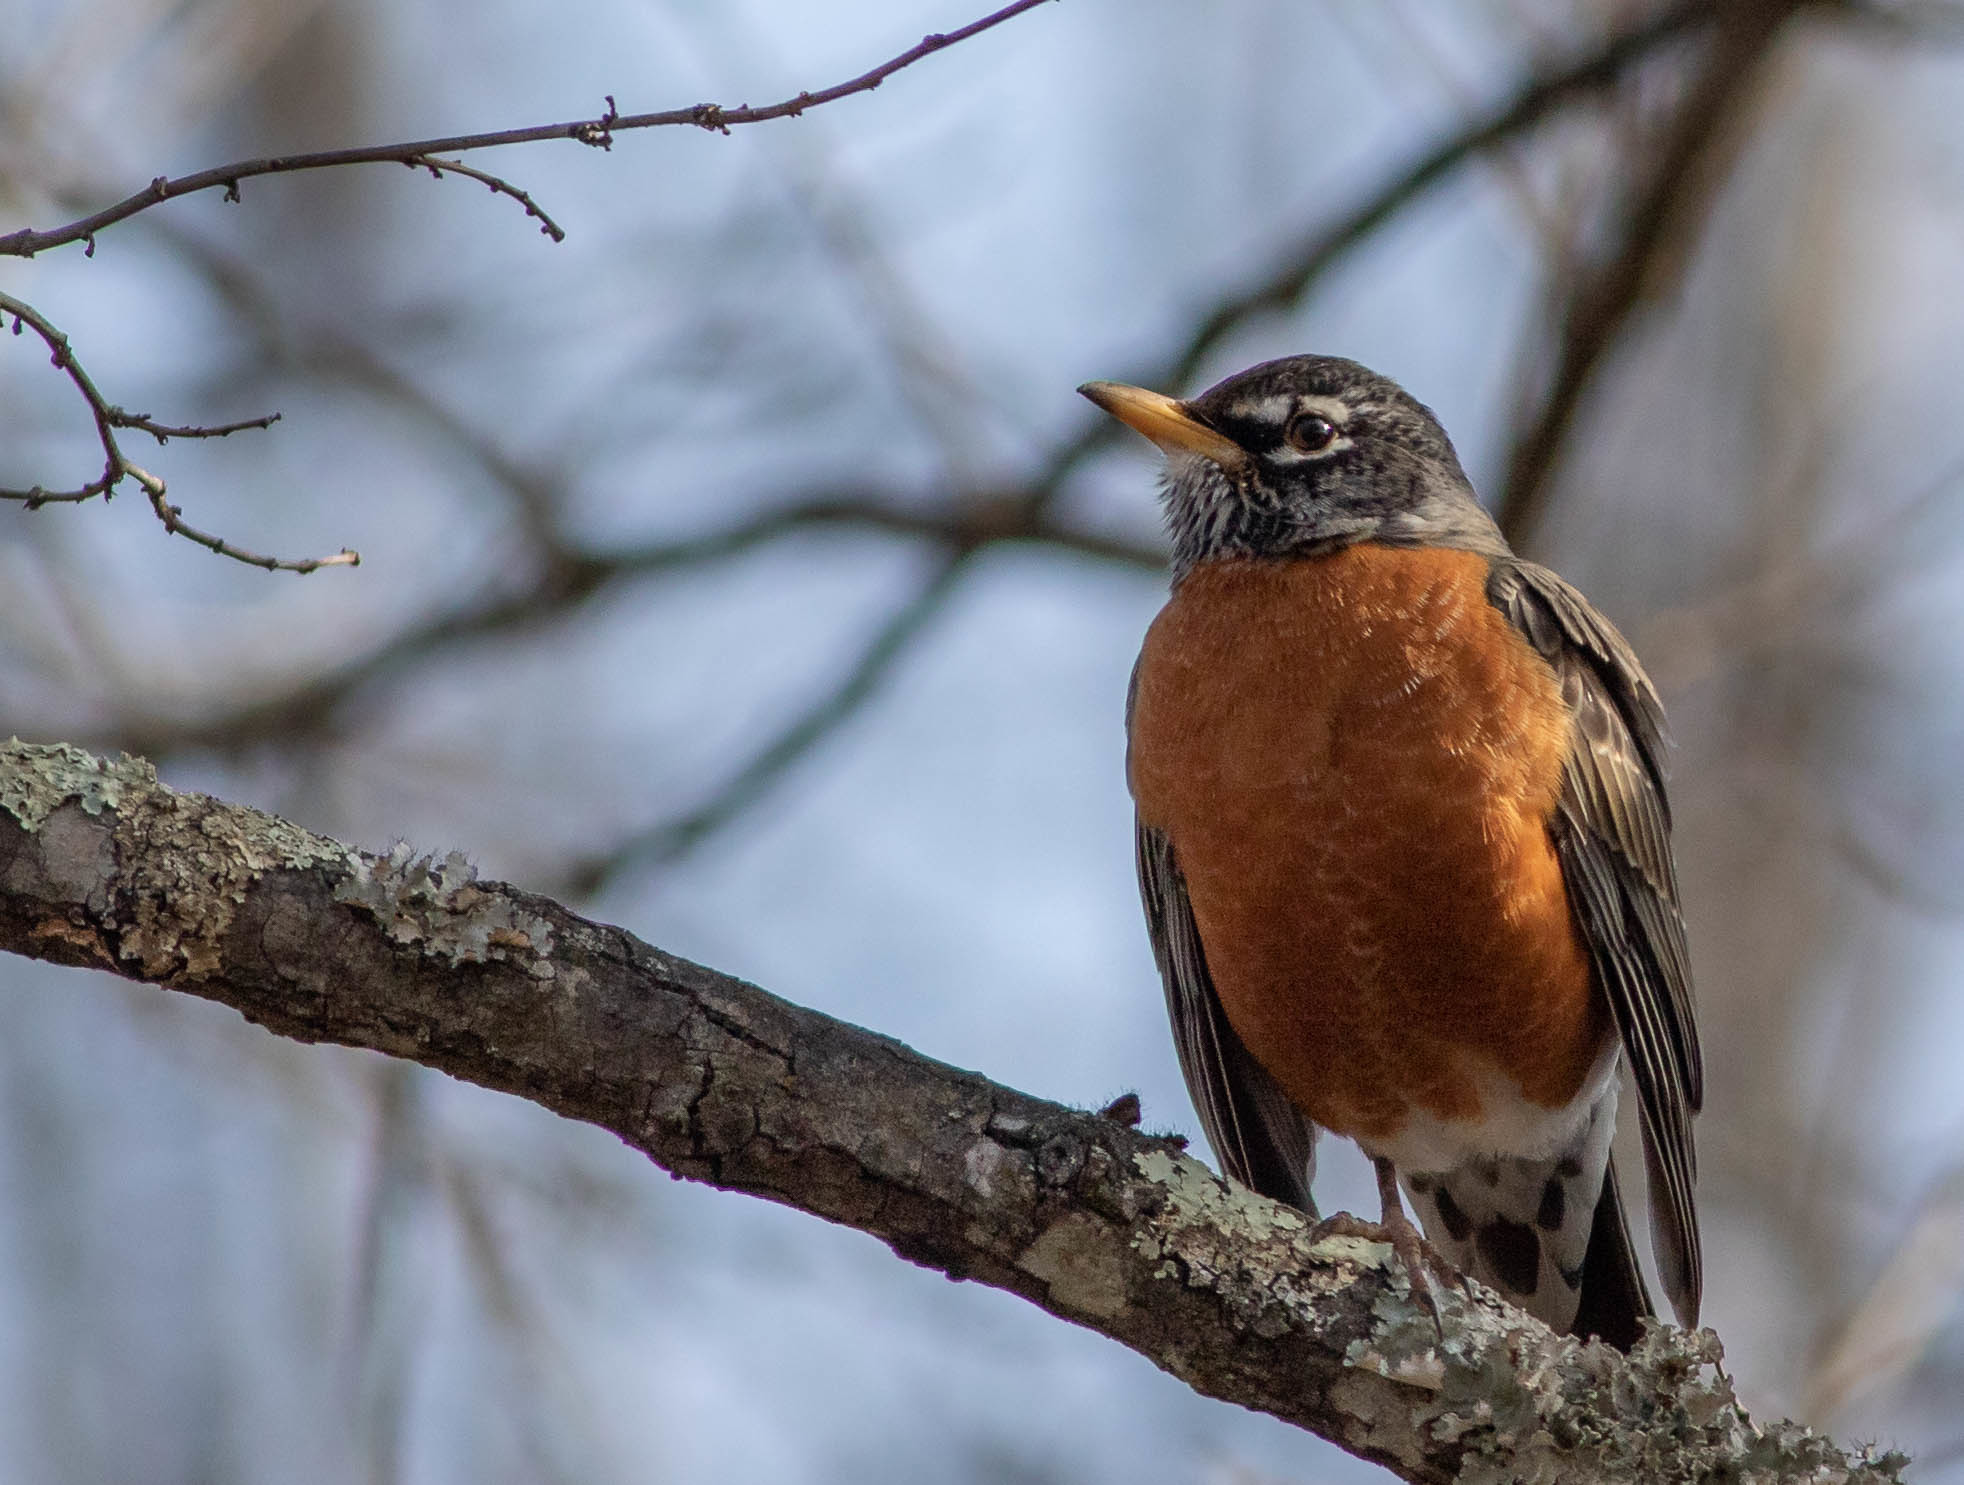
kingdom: Animalia
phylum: Chordata
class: Aves
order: Passeriformes
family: Turdidae
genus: Turdus
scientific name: Turdus migratorius
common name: American robin
